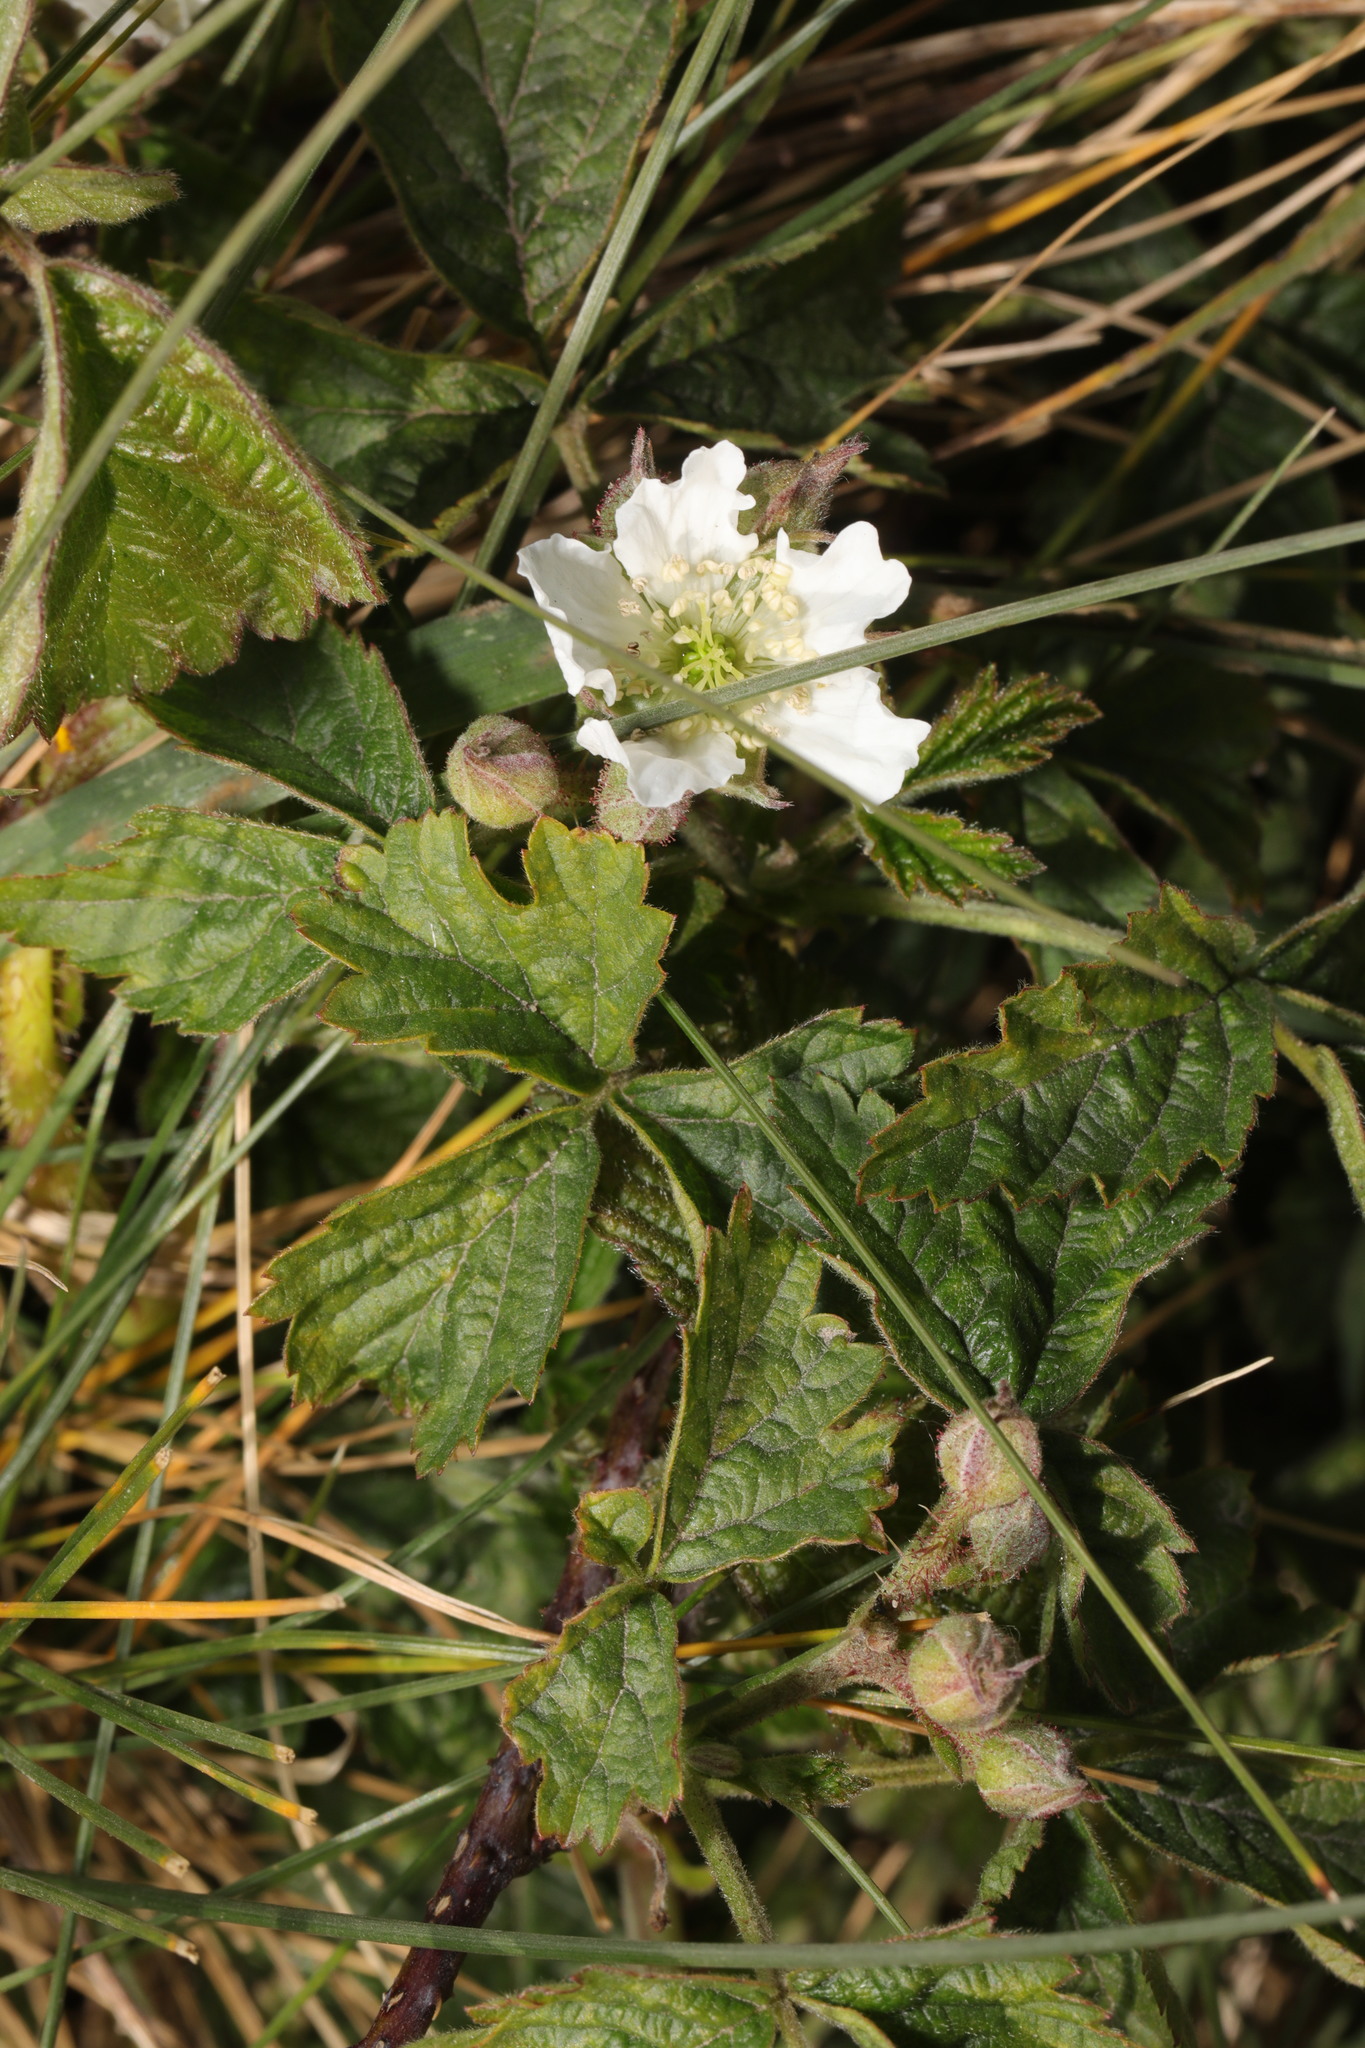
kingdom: Plantae
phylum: Tracheophyta
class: Magnoliopsida
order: Rosales
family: Rosaceae
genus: Rubus
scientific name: Rubus caesius
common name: Dewberry
